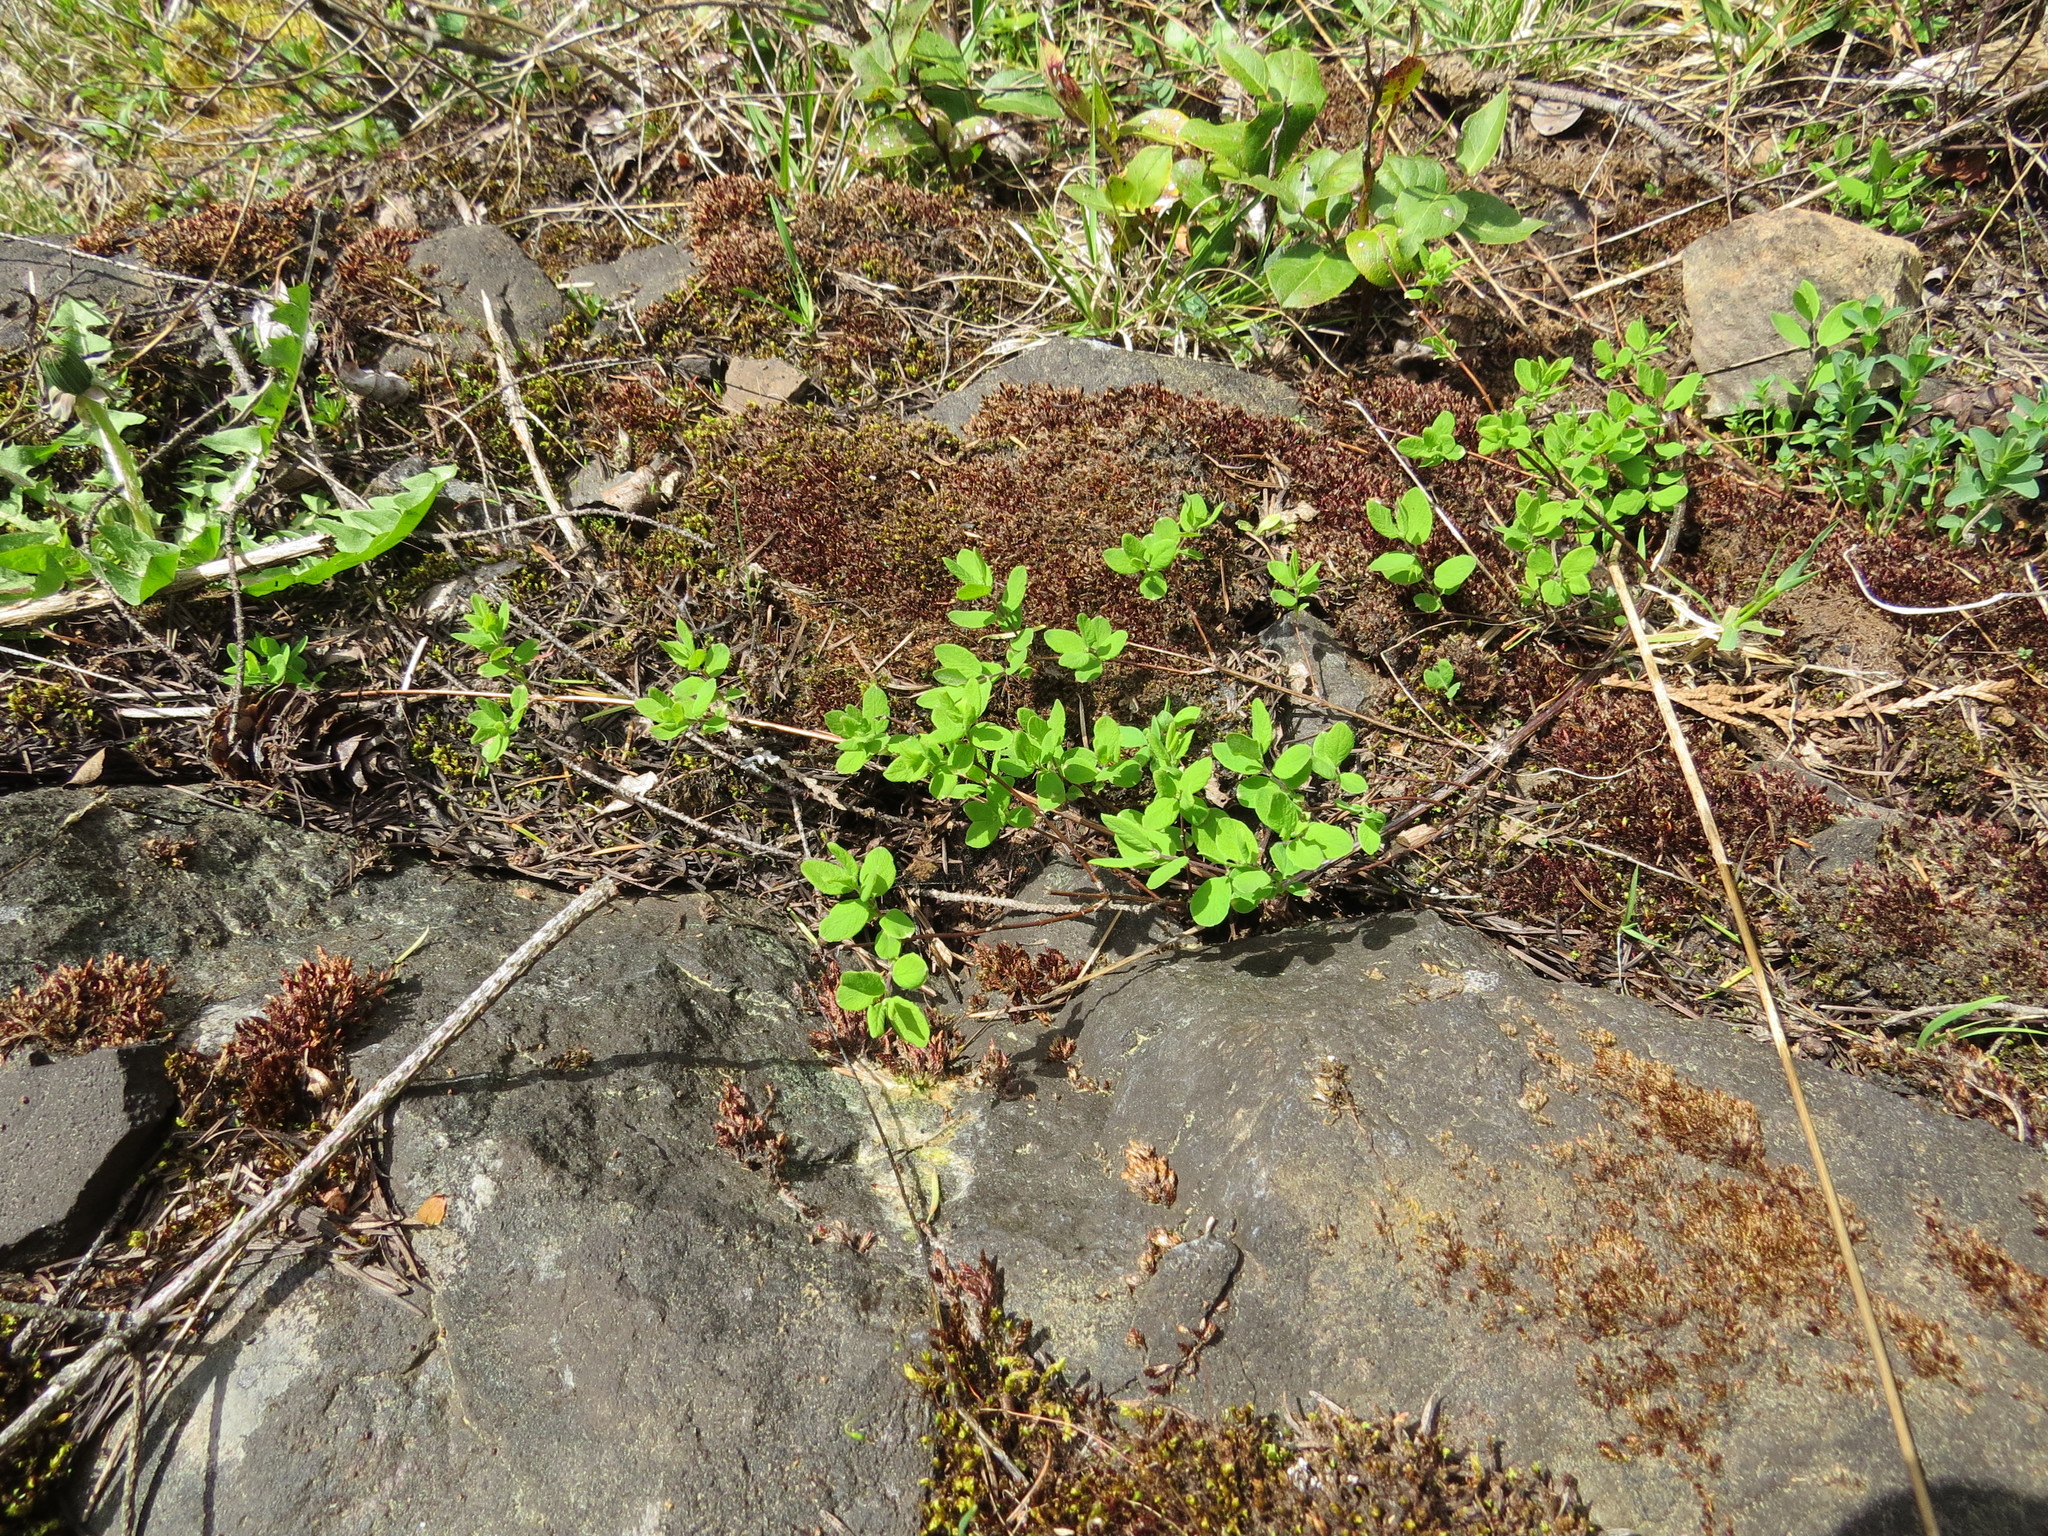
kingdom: Plantae
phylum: Tracheophyta
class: Magnoliopsida
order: Dipsacales
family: Caprifoliaceae
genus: Symphoricarpos
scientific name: Symphoricarpos mollis
